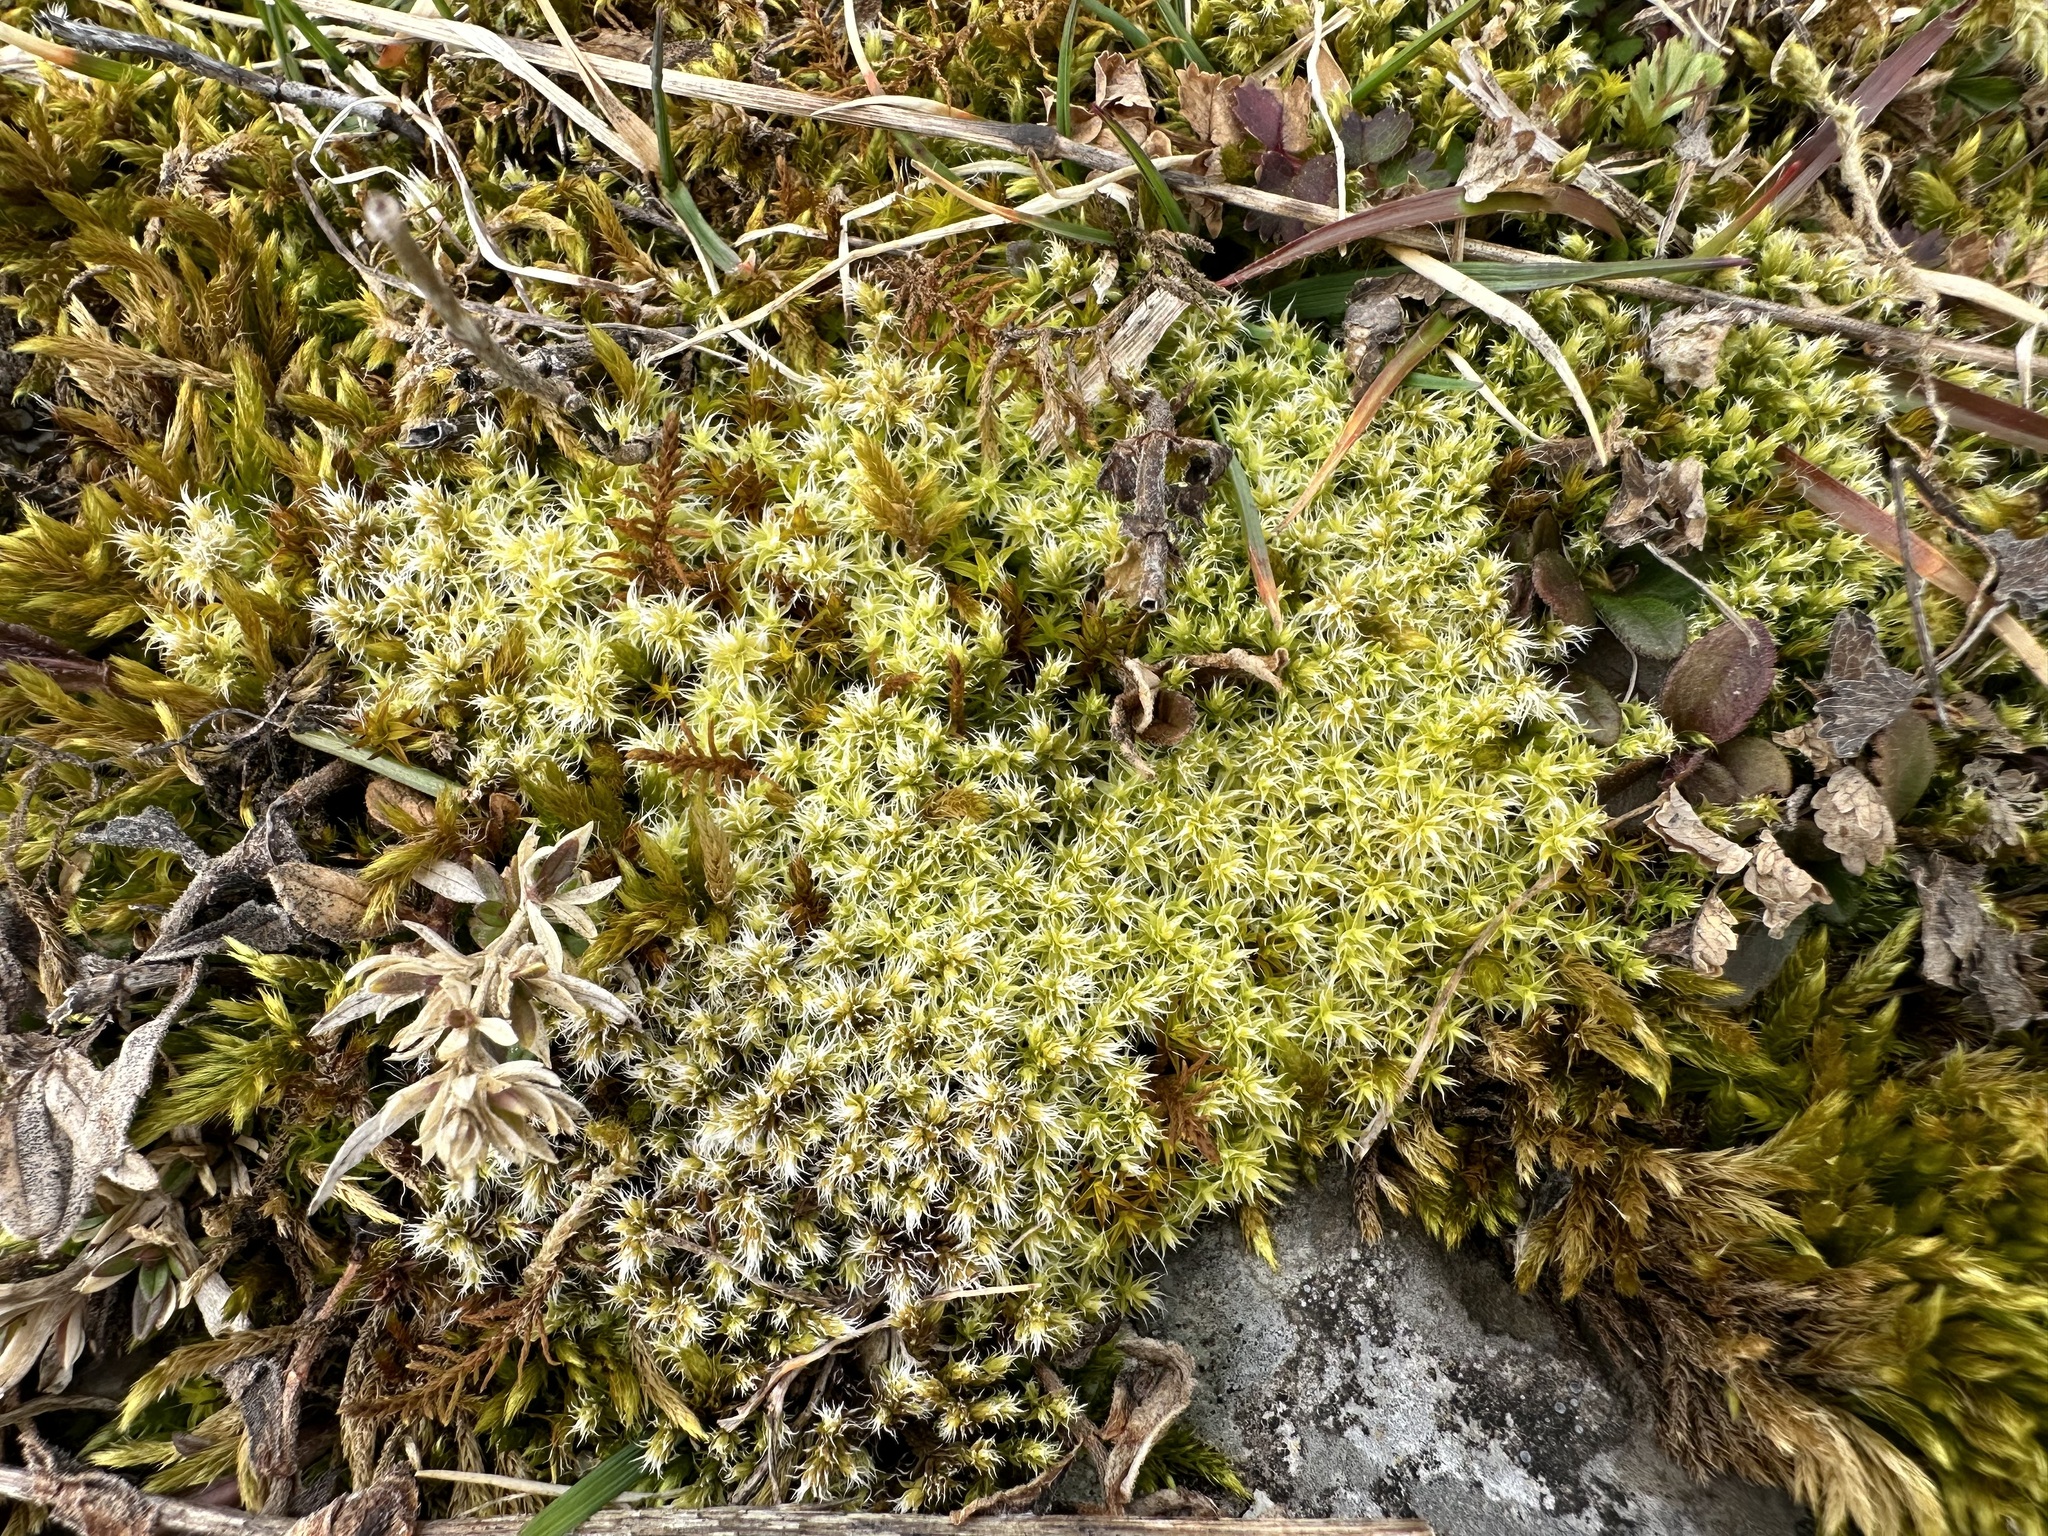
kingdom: Plantae
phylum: Bryophyta
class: Bryopsida
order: Grimmiales
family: Grimmiaceae
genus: Niphotrichum
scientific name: Niphotrichum canescens
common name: Hoary fringe-moss
